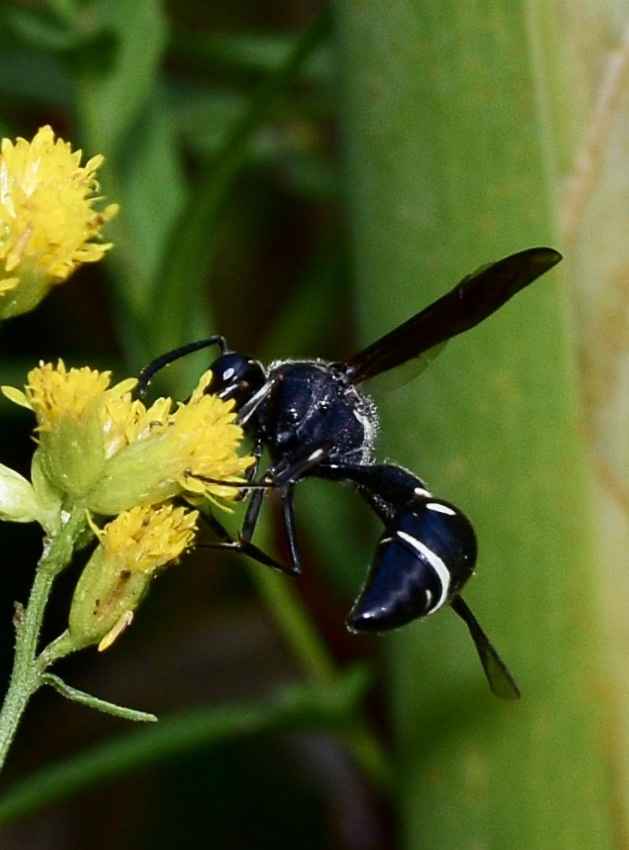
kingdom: Animalia
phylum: Arthropoda
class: Insecta
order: Hymenoptera
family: Vespidae
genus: Eumenes
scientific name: Eumenes fraternus
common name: Fraternal potter wasp
